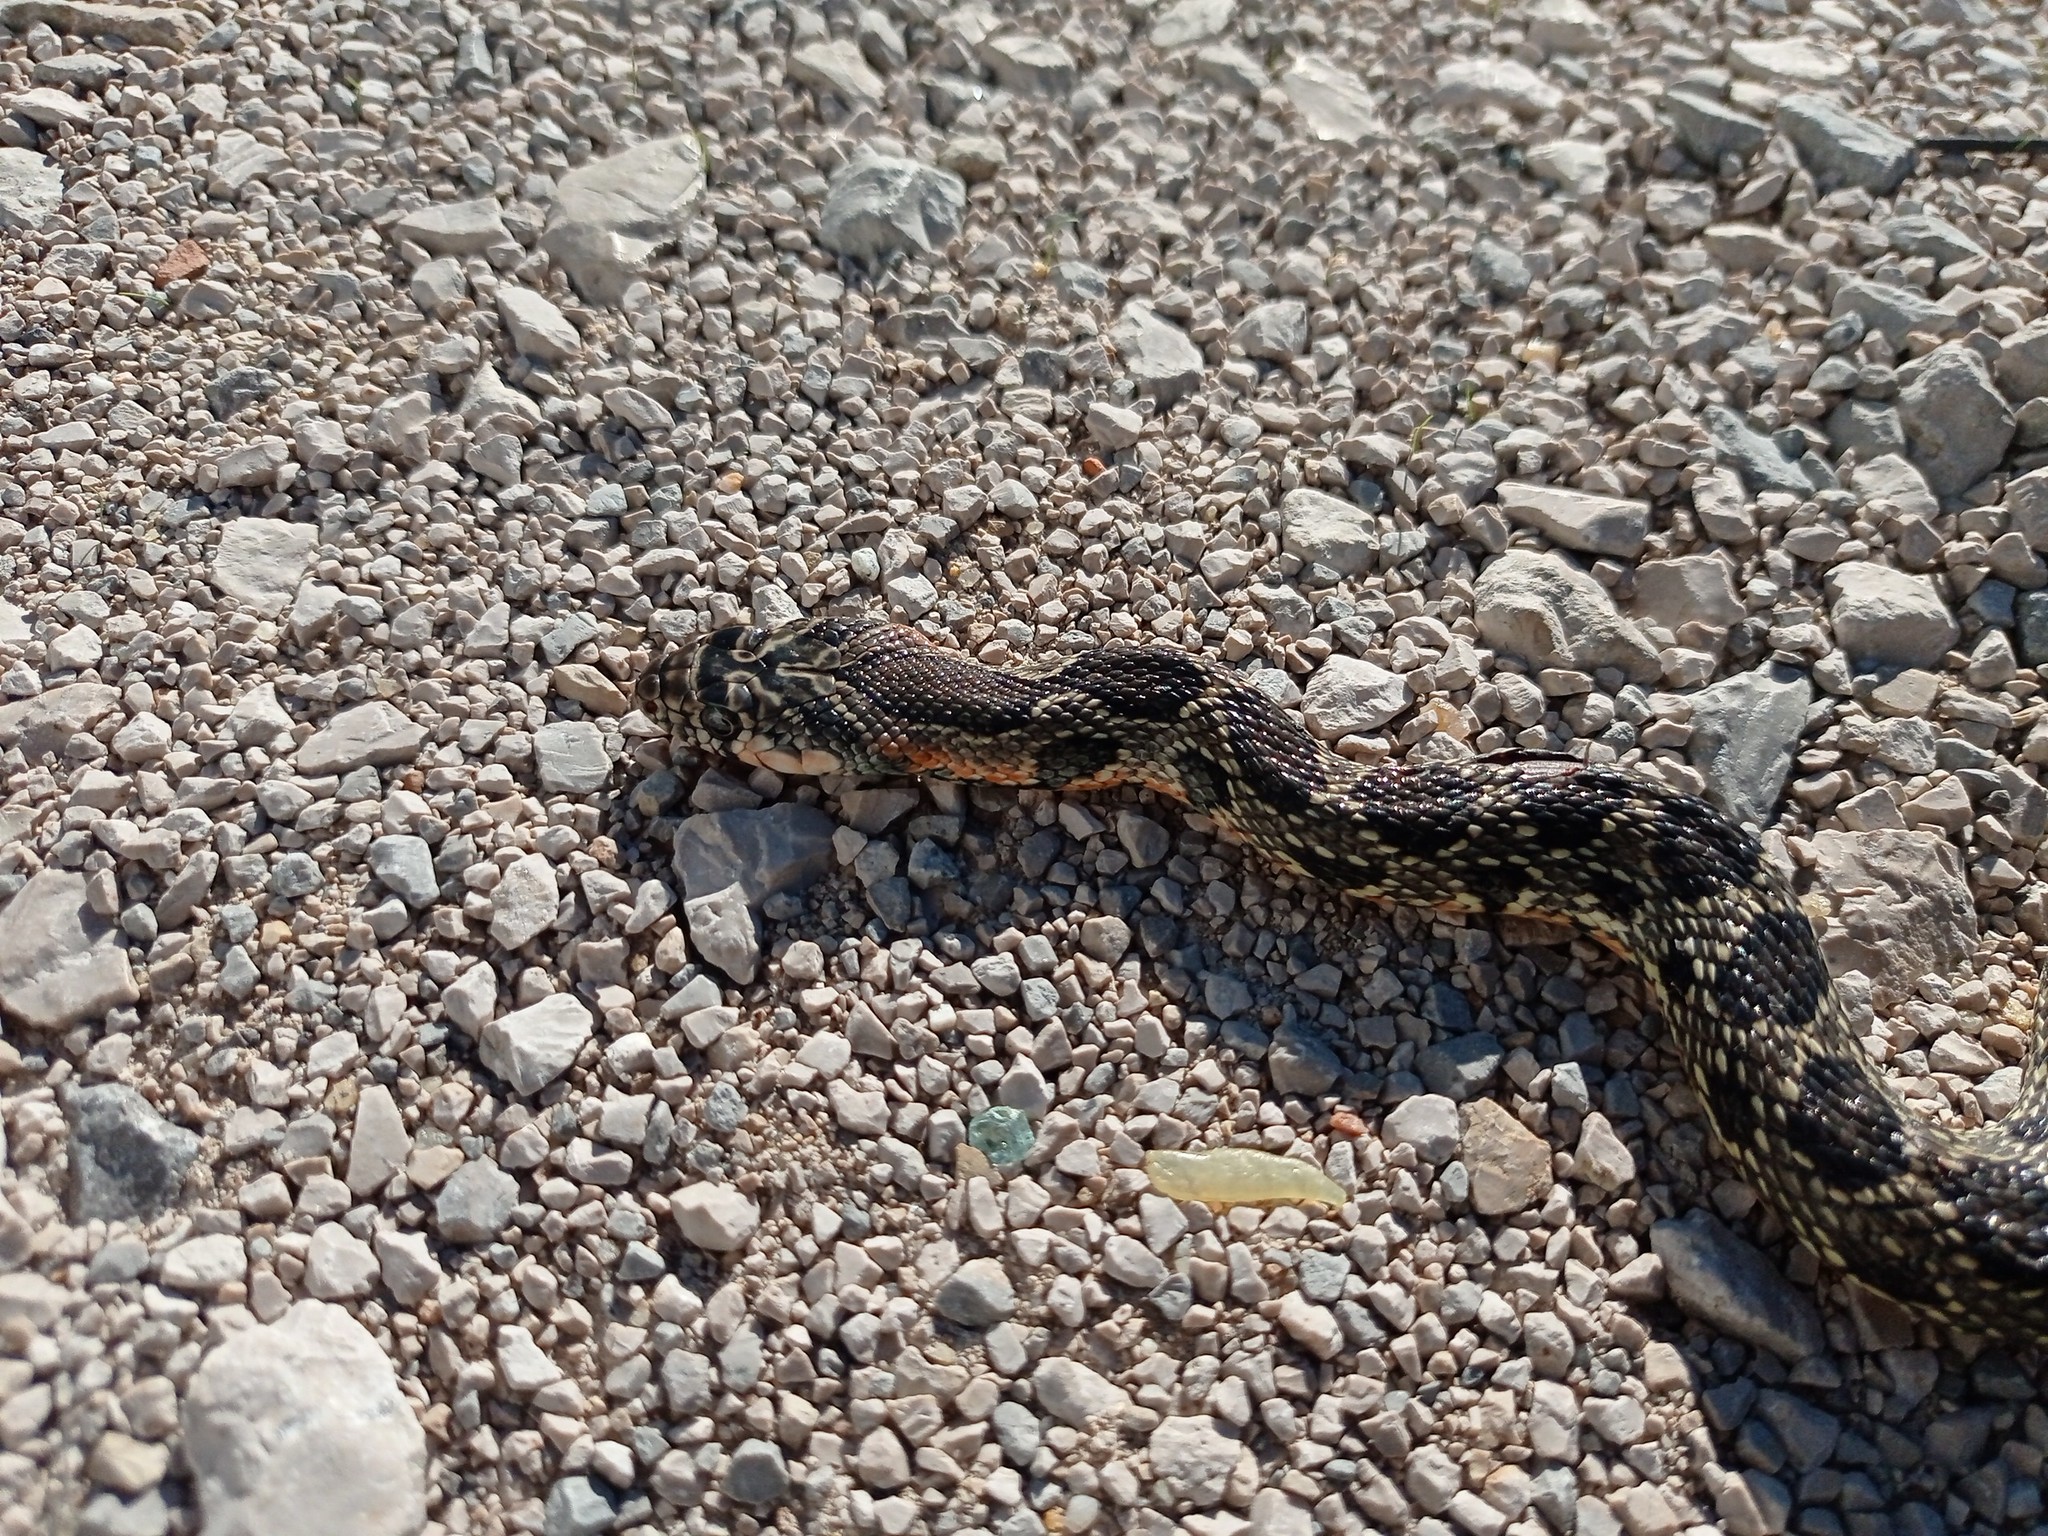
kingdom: Animalia
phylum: Chordata
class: Squamata
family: Colubridae
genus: Hemorrhois
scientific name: Hemorrhois hippocrepis
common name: Horseshoe whip snake
